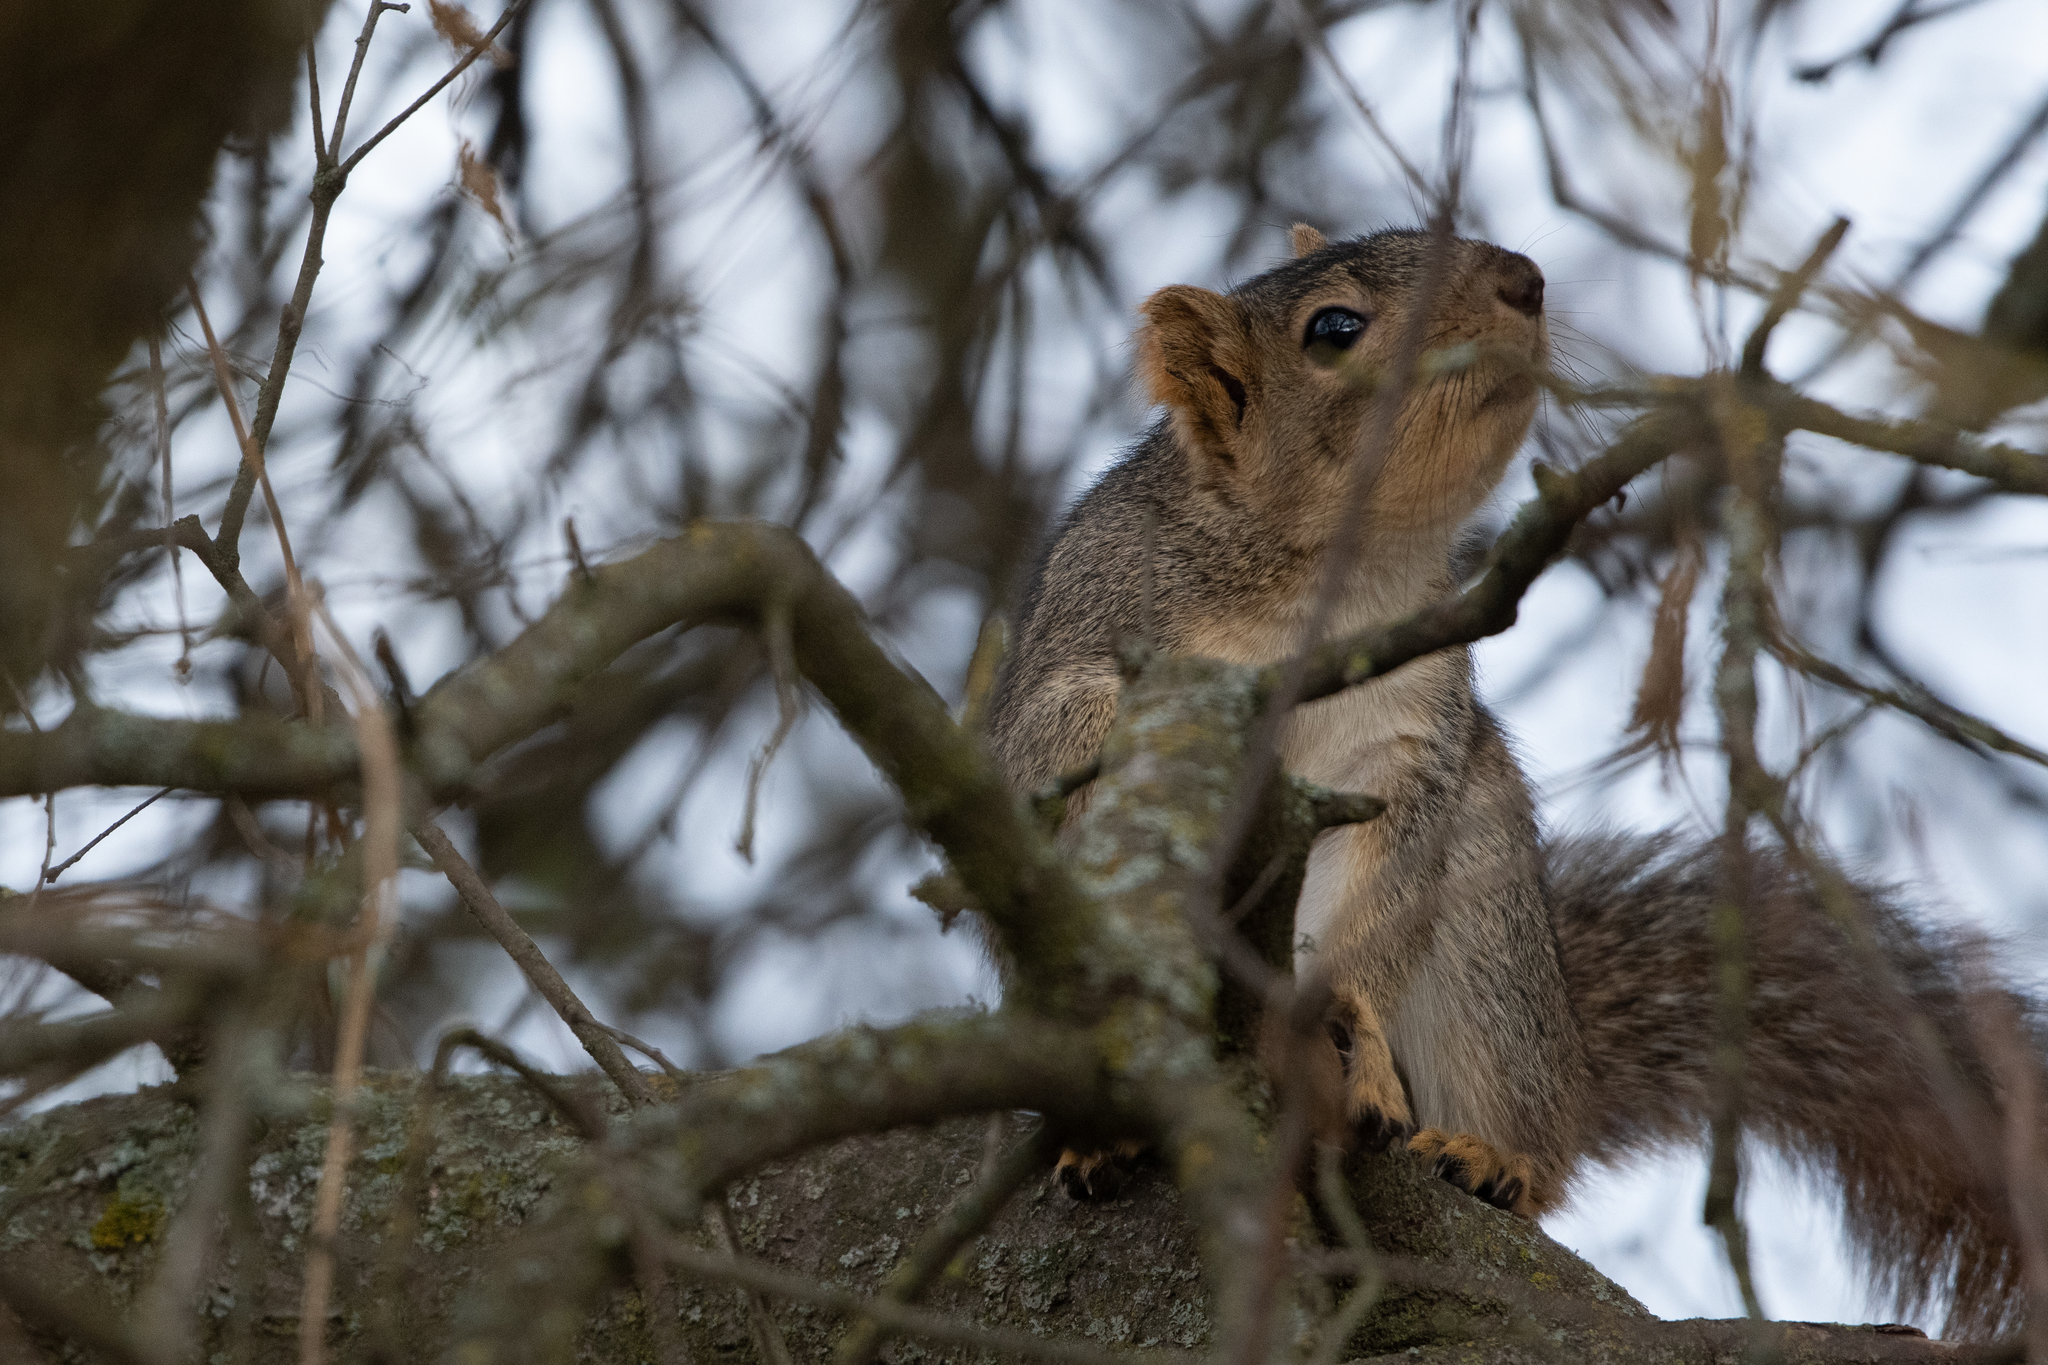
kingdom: Animalia
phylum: Chordata
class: Mammalia
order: Rodentia
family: Sciuridae
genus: Sciurus
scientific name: Sciurus niger
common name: Fox squirrel
